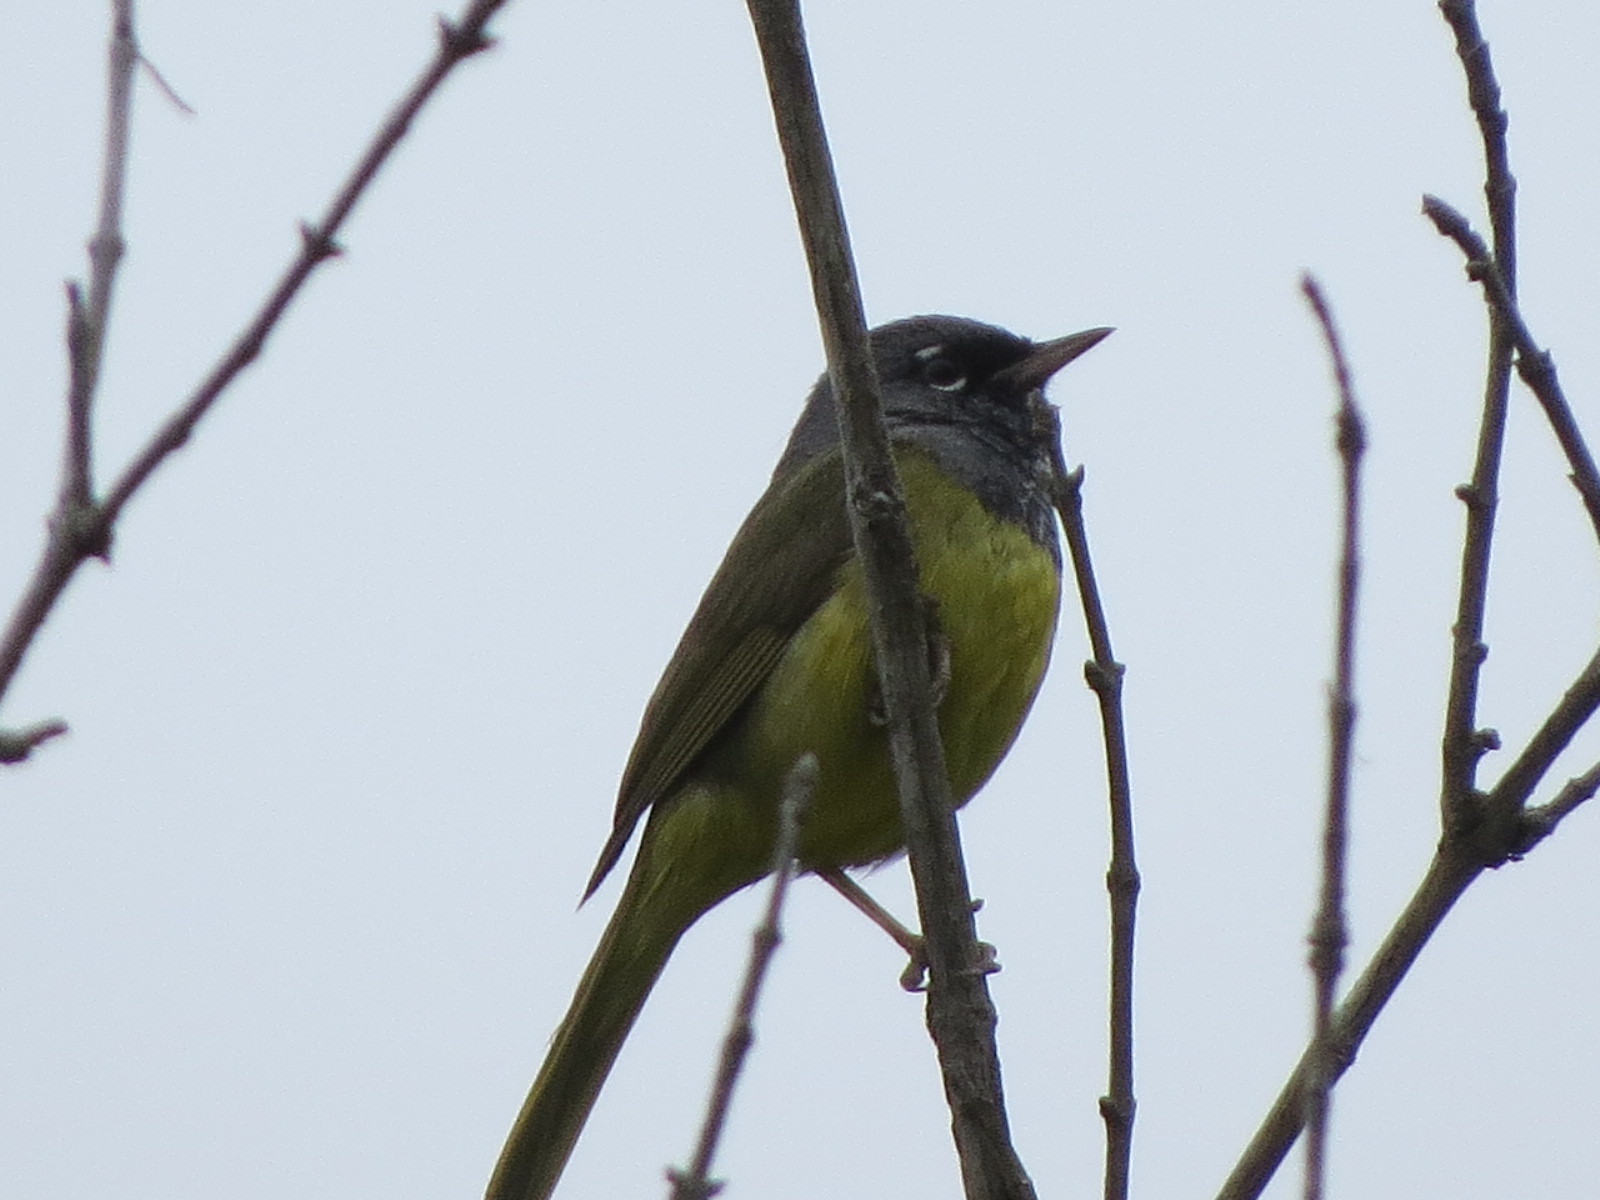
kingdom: Animalia
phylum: Chordata
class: Aves
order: Passeriformes
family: Parulidae
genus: Geothlypis
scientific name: Geothlypis tolmiei
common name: Macgillivray's warbler
